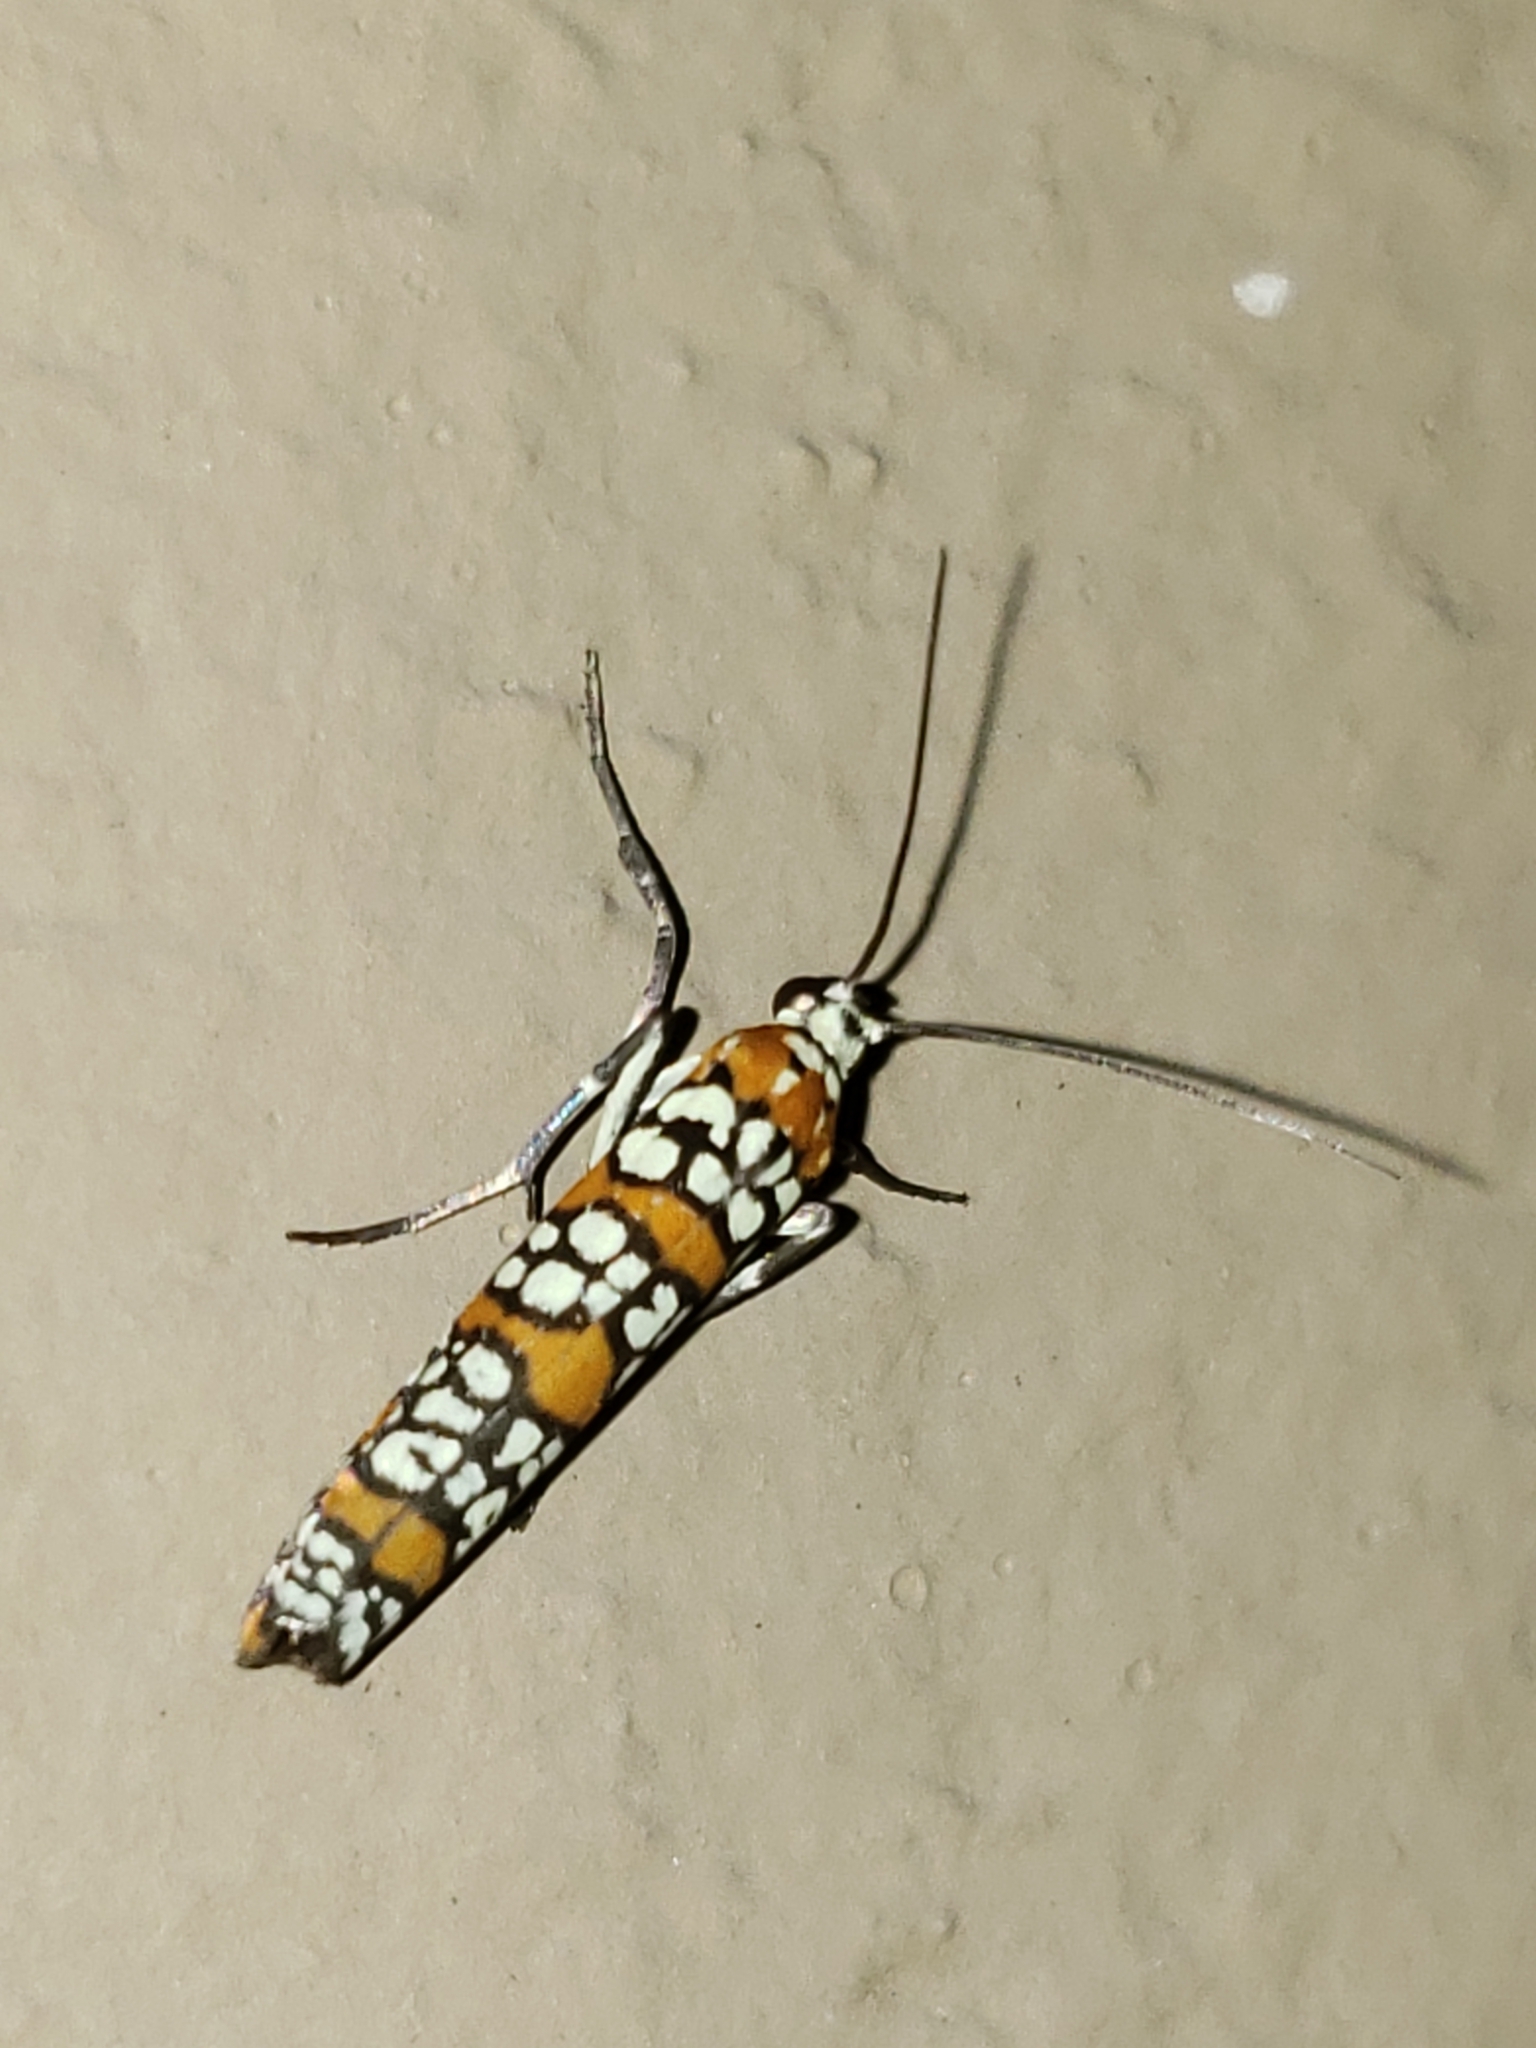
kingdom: Animalia
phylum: Arthropoda
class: Insecta
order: Lepidoptera
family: Attevidae
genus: Atteva
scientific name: Atteva punctella
